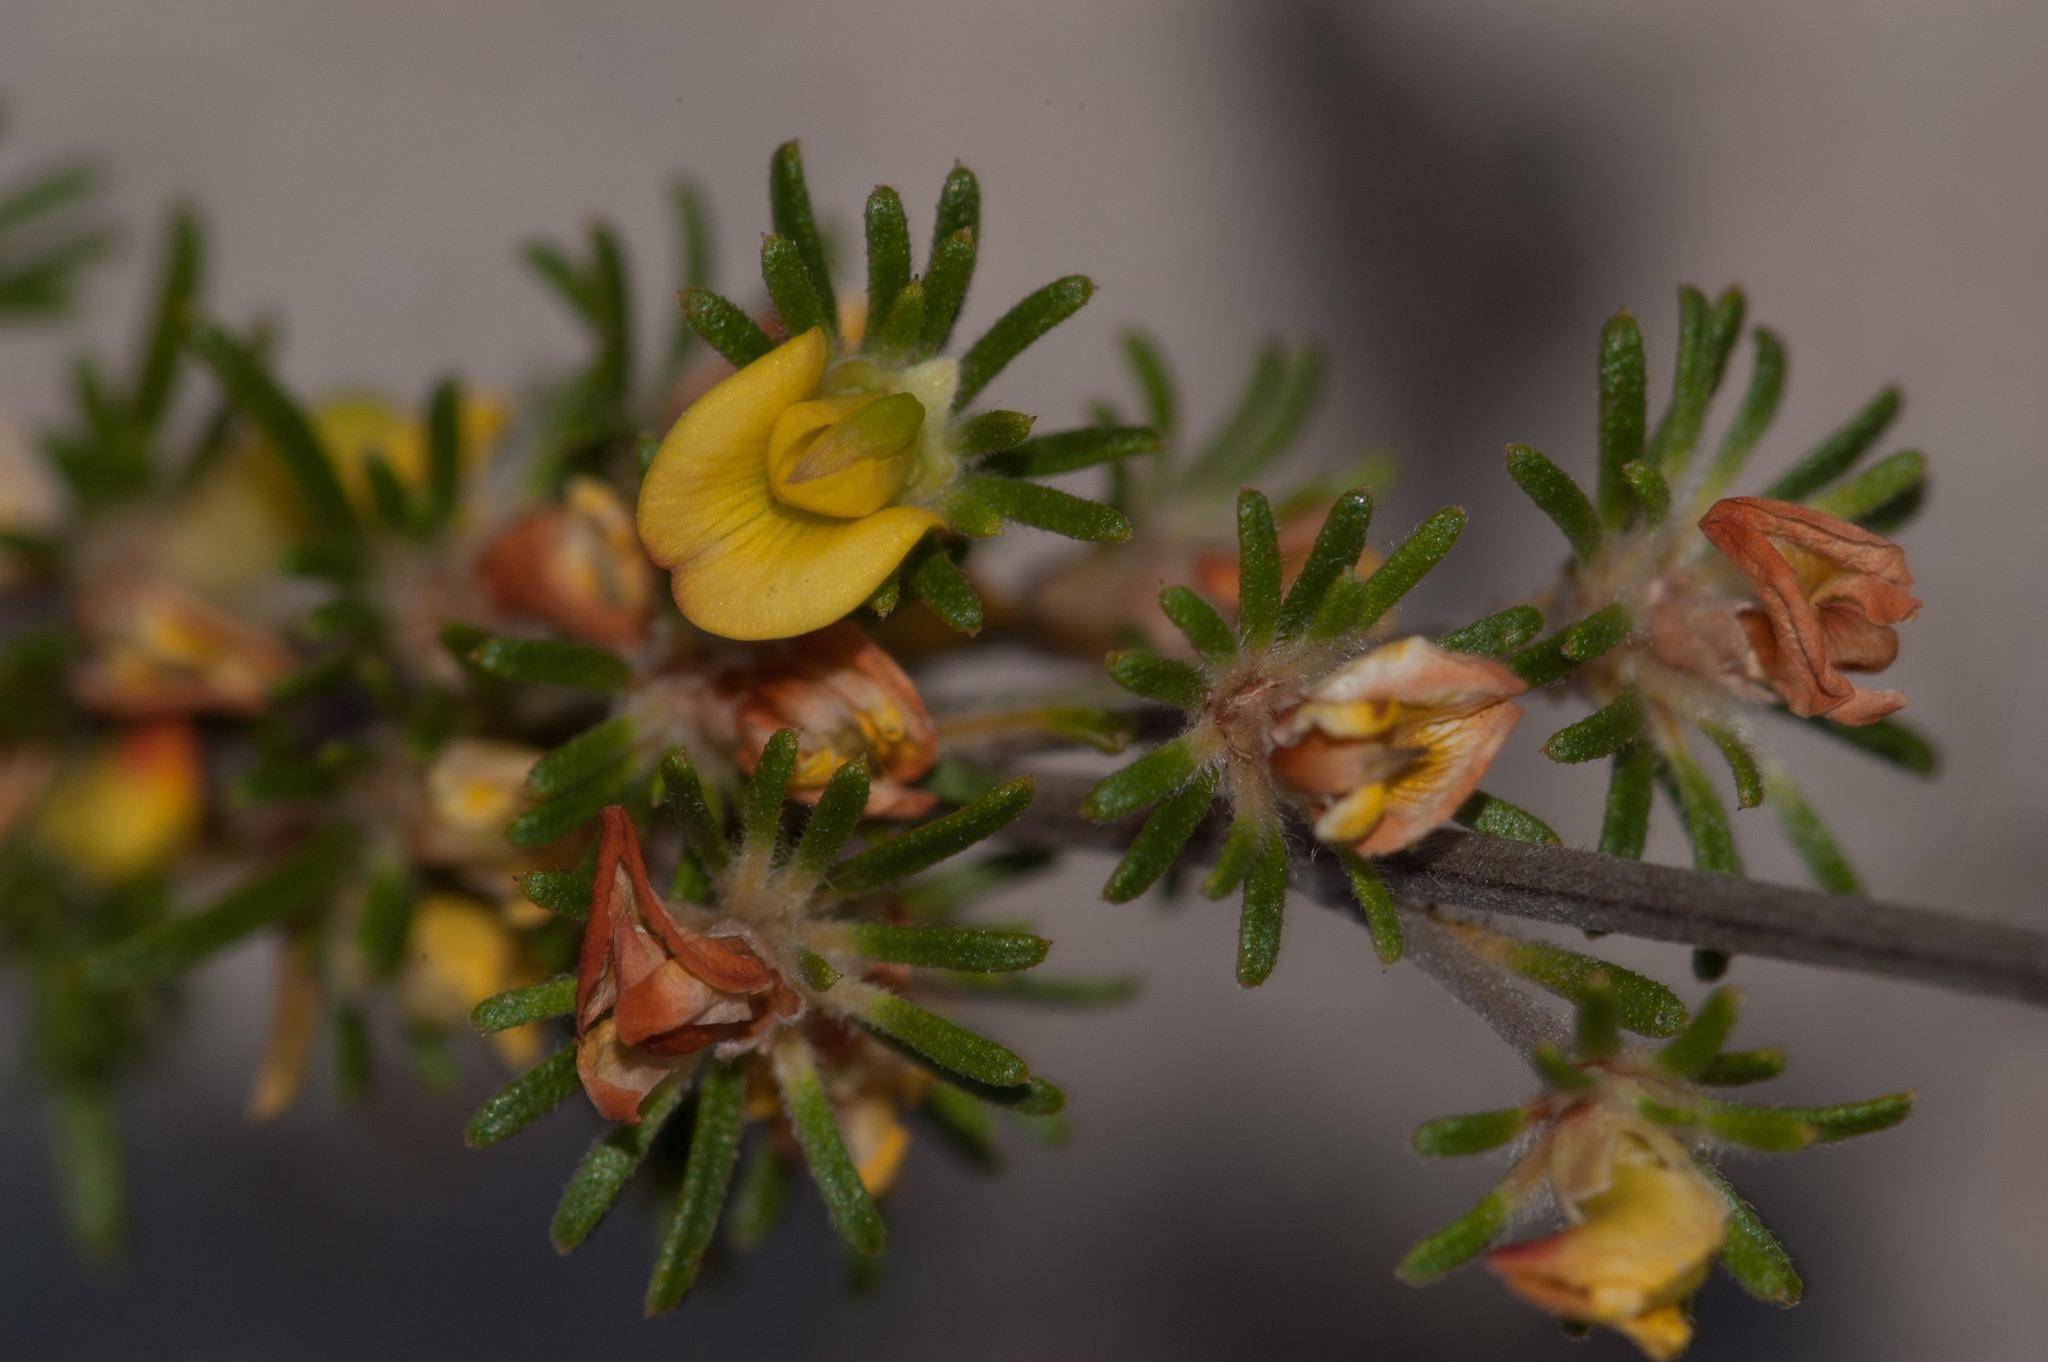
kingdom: Plantae
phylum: Tracheophyta
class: Magnoliopsida
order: Fabales
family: Fabaceae
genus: Phyllota
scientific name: Phyllota pleurandroides
